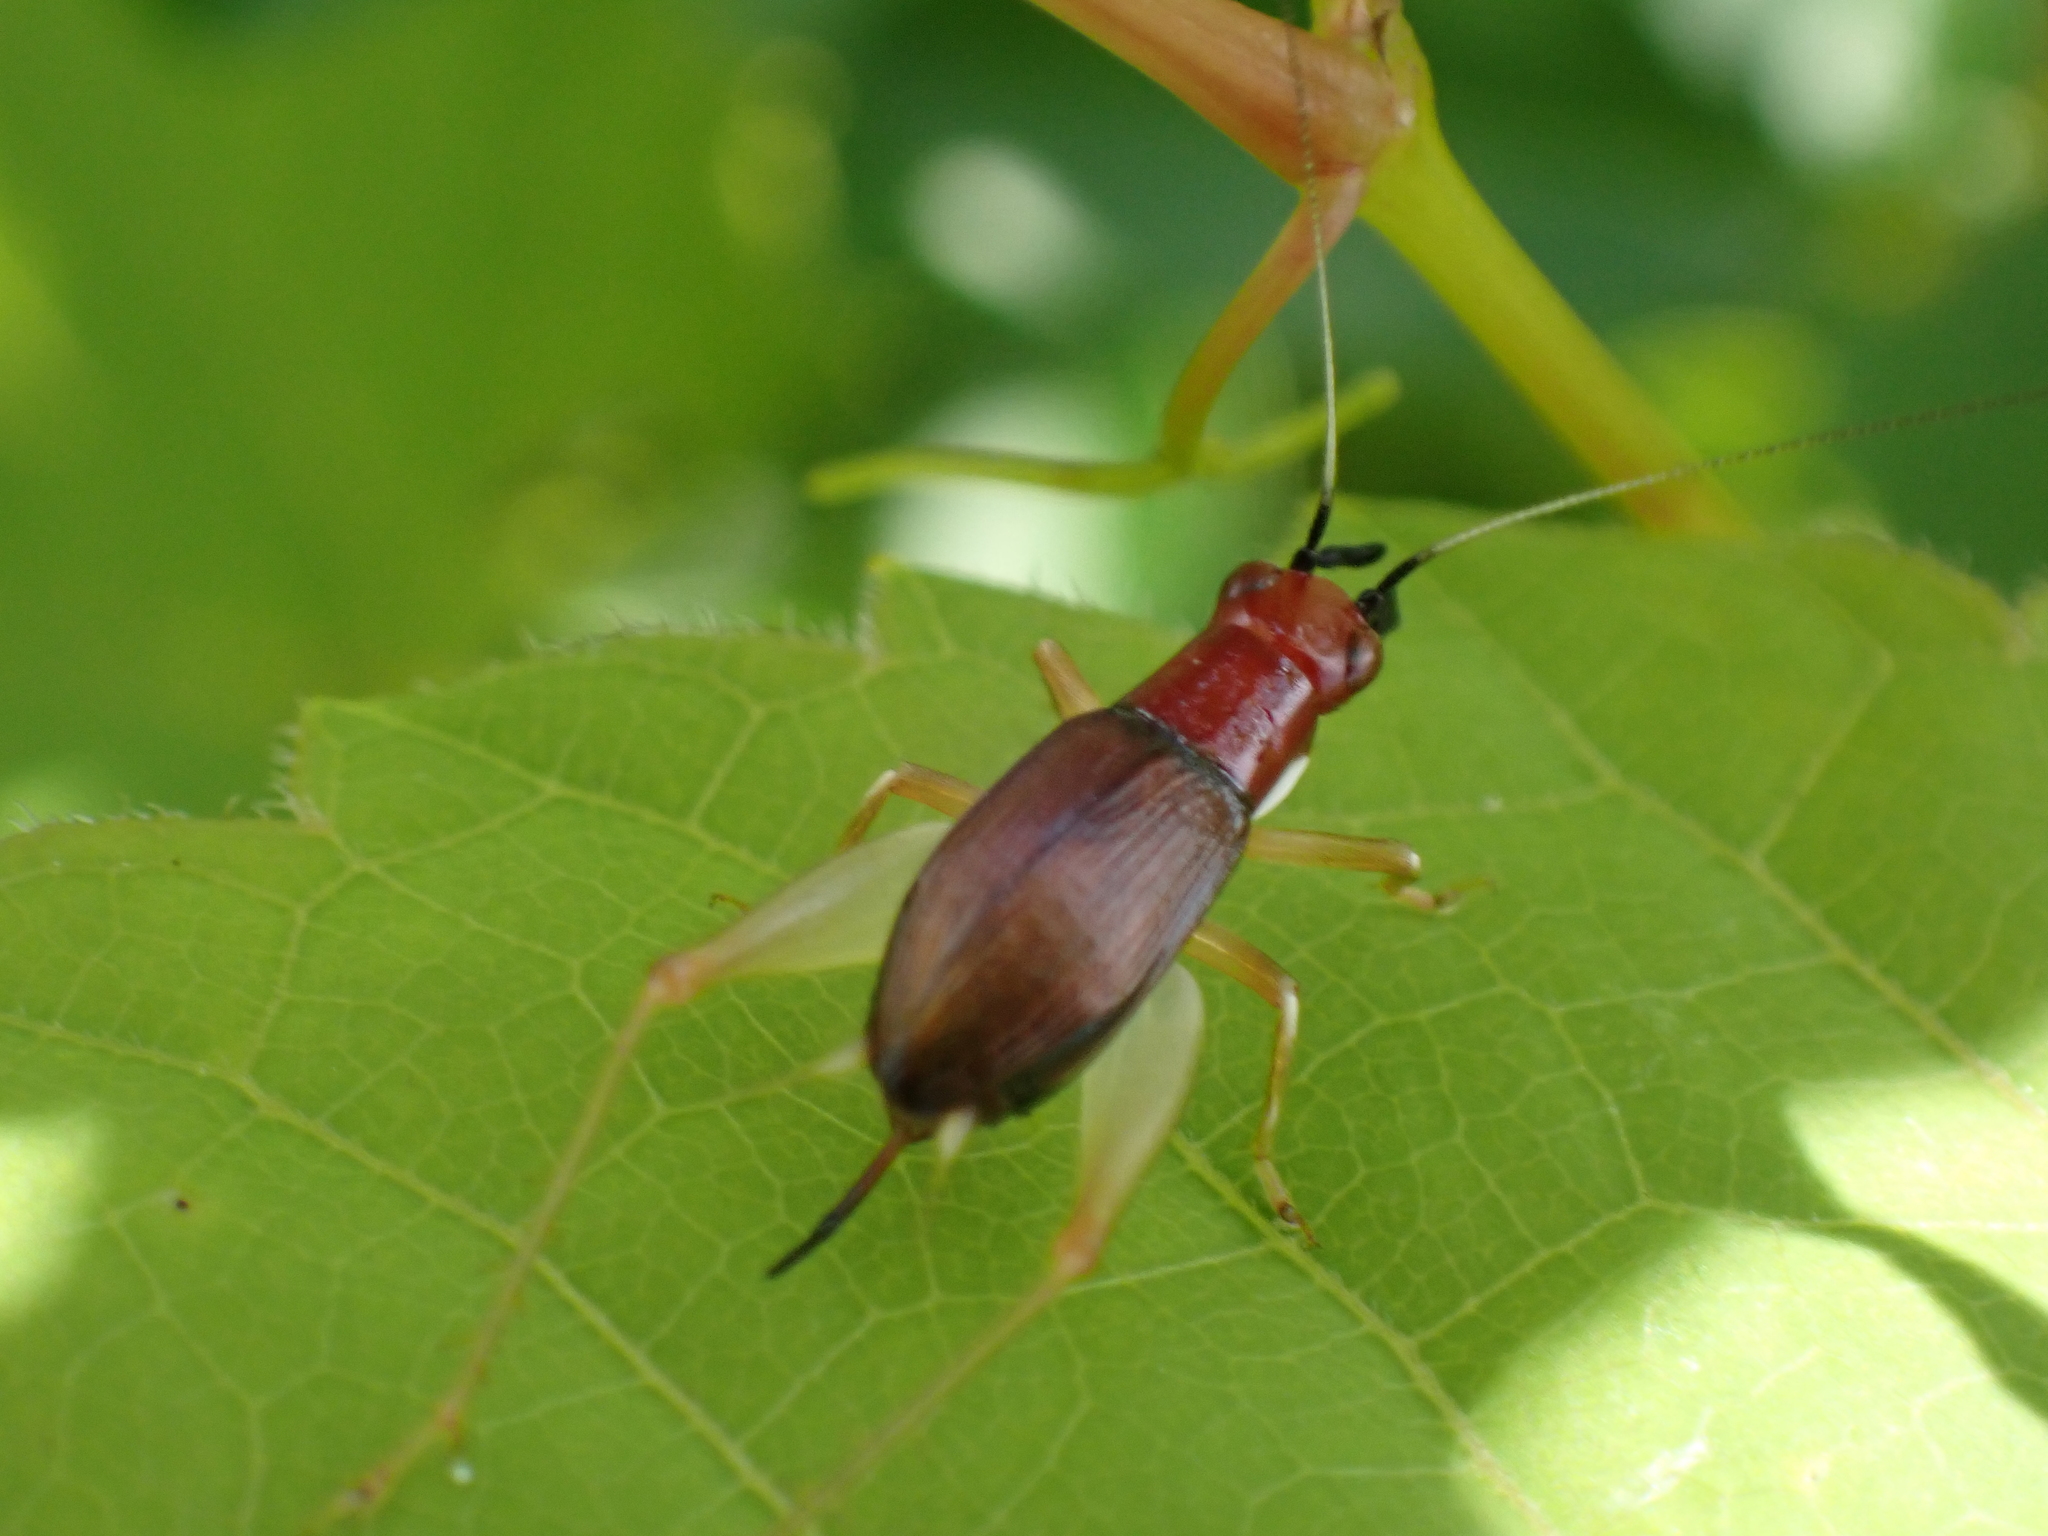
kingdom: Animalia
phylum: Arthropoda
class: Insecta
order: Orthoptera
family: Trigonidiidae
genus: Phyllopalpus
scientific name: Phyllopalpus pulchellus
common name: Handsome trig
